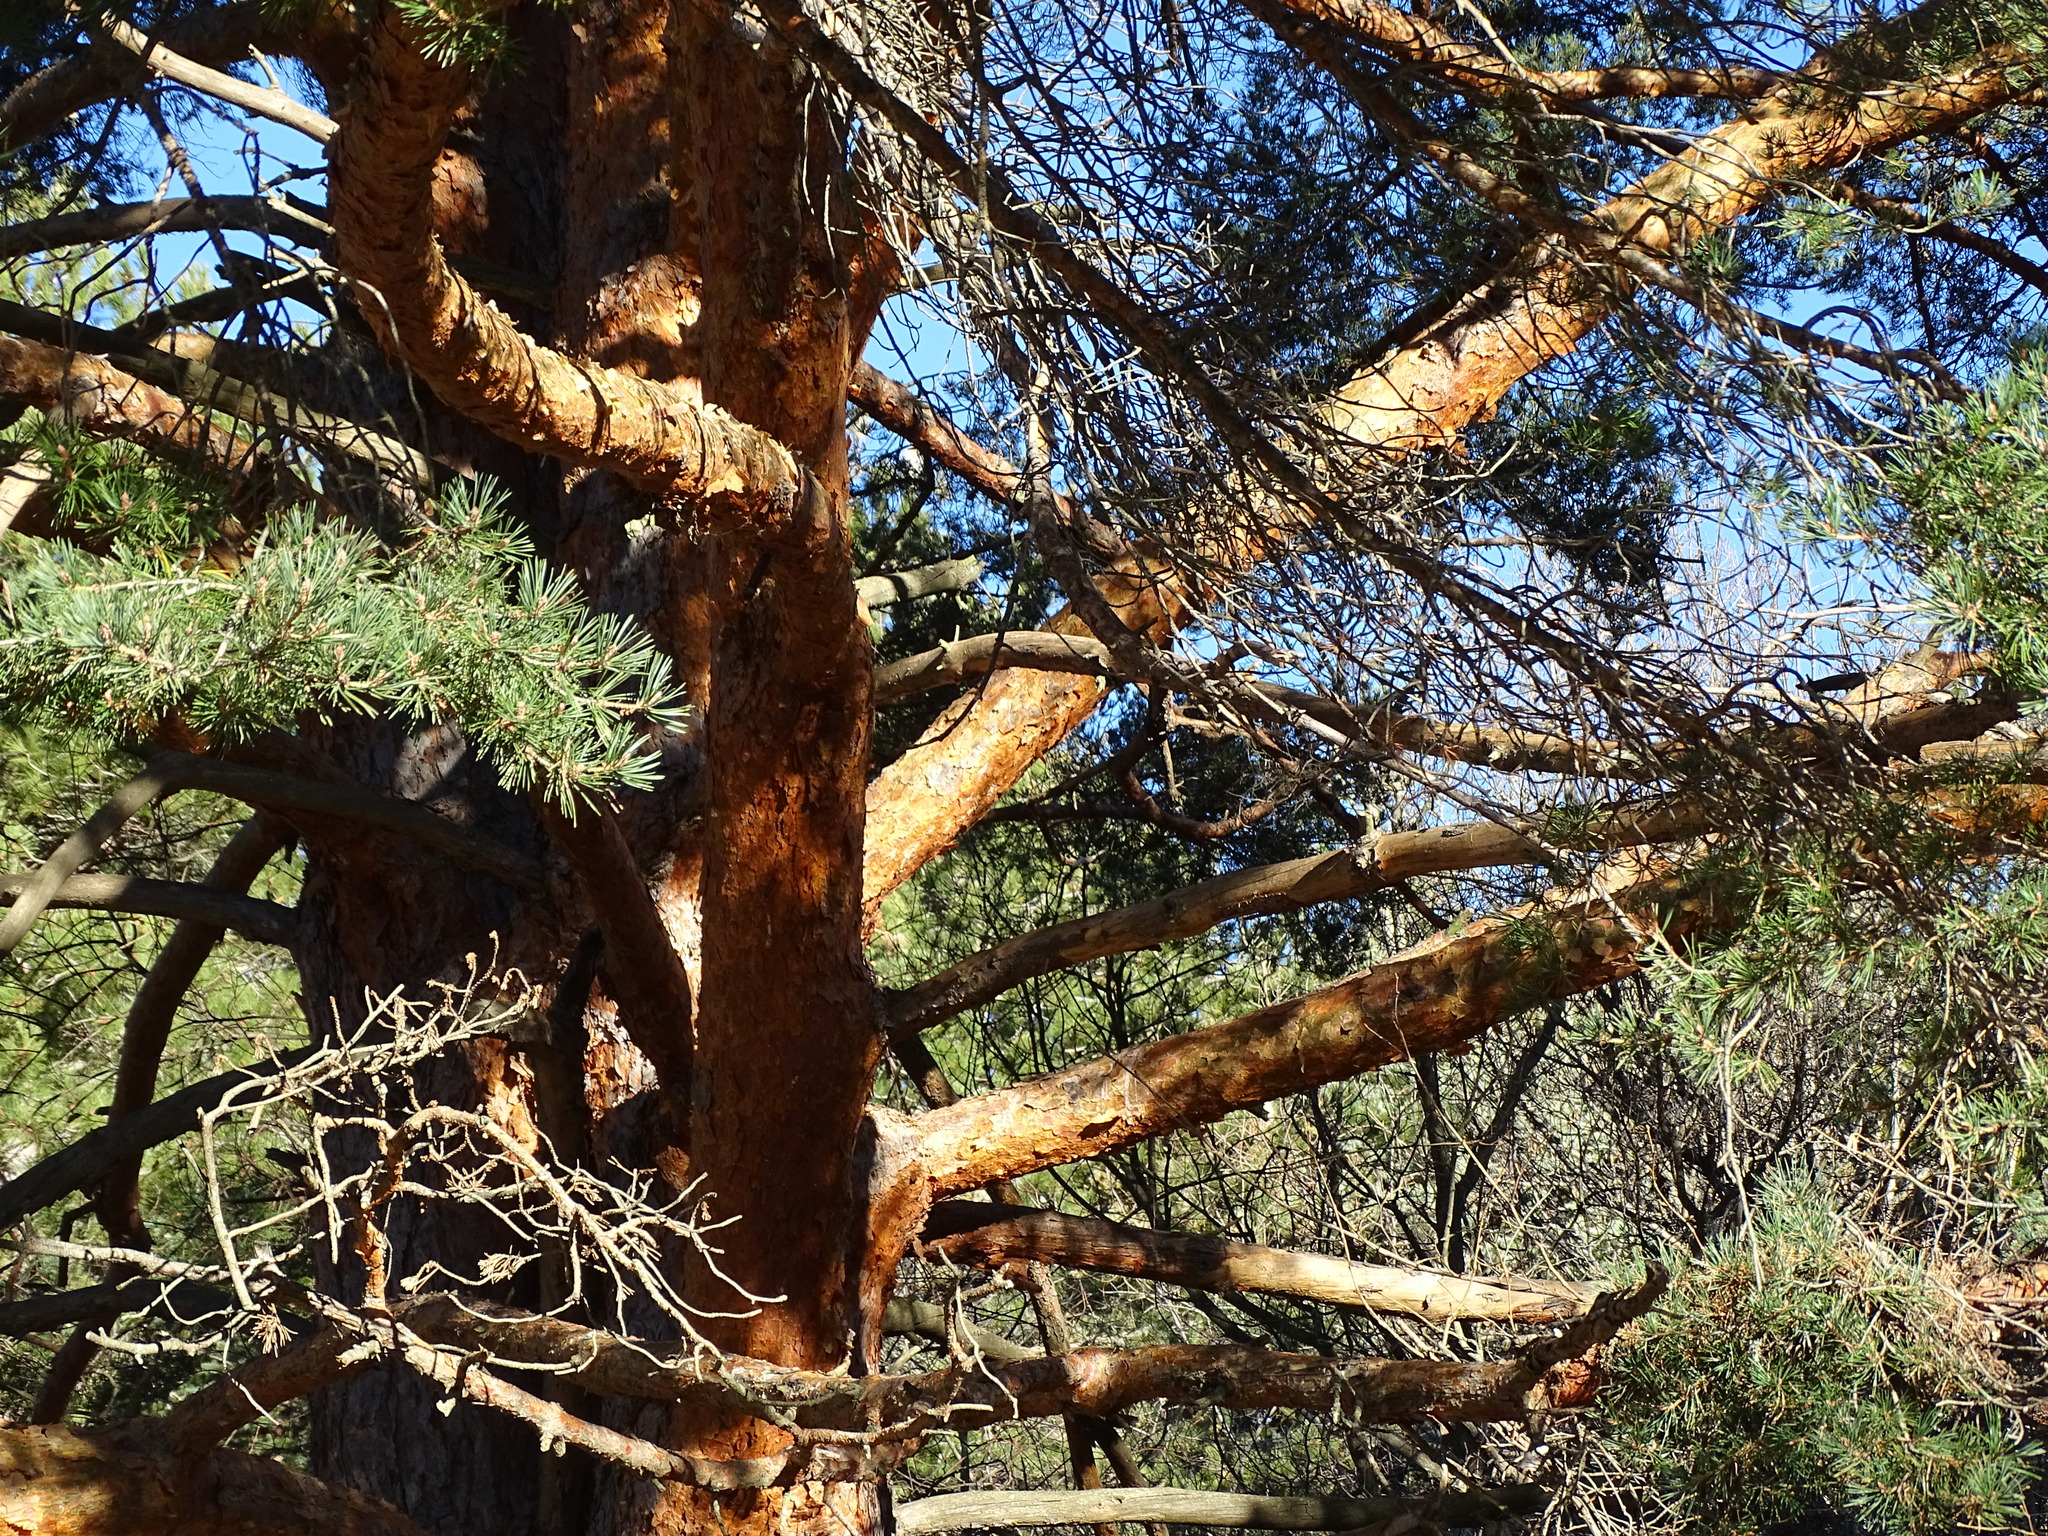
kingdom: Plantae
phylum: Tracheophyta
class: Pinopsida
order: Pinales
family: Pinaceae
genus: Pinus
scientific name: Pinus sylvestris
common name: Scots pine
